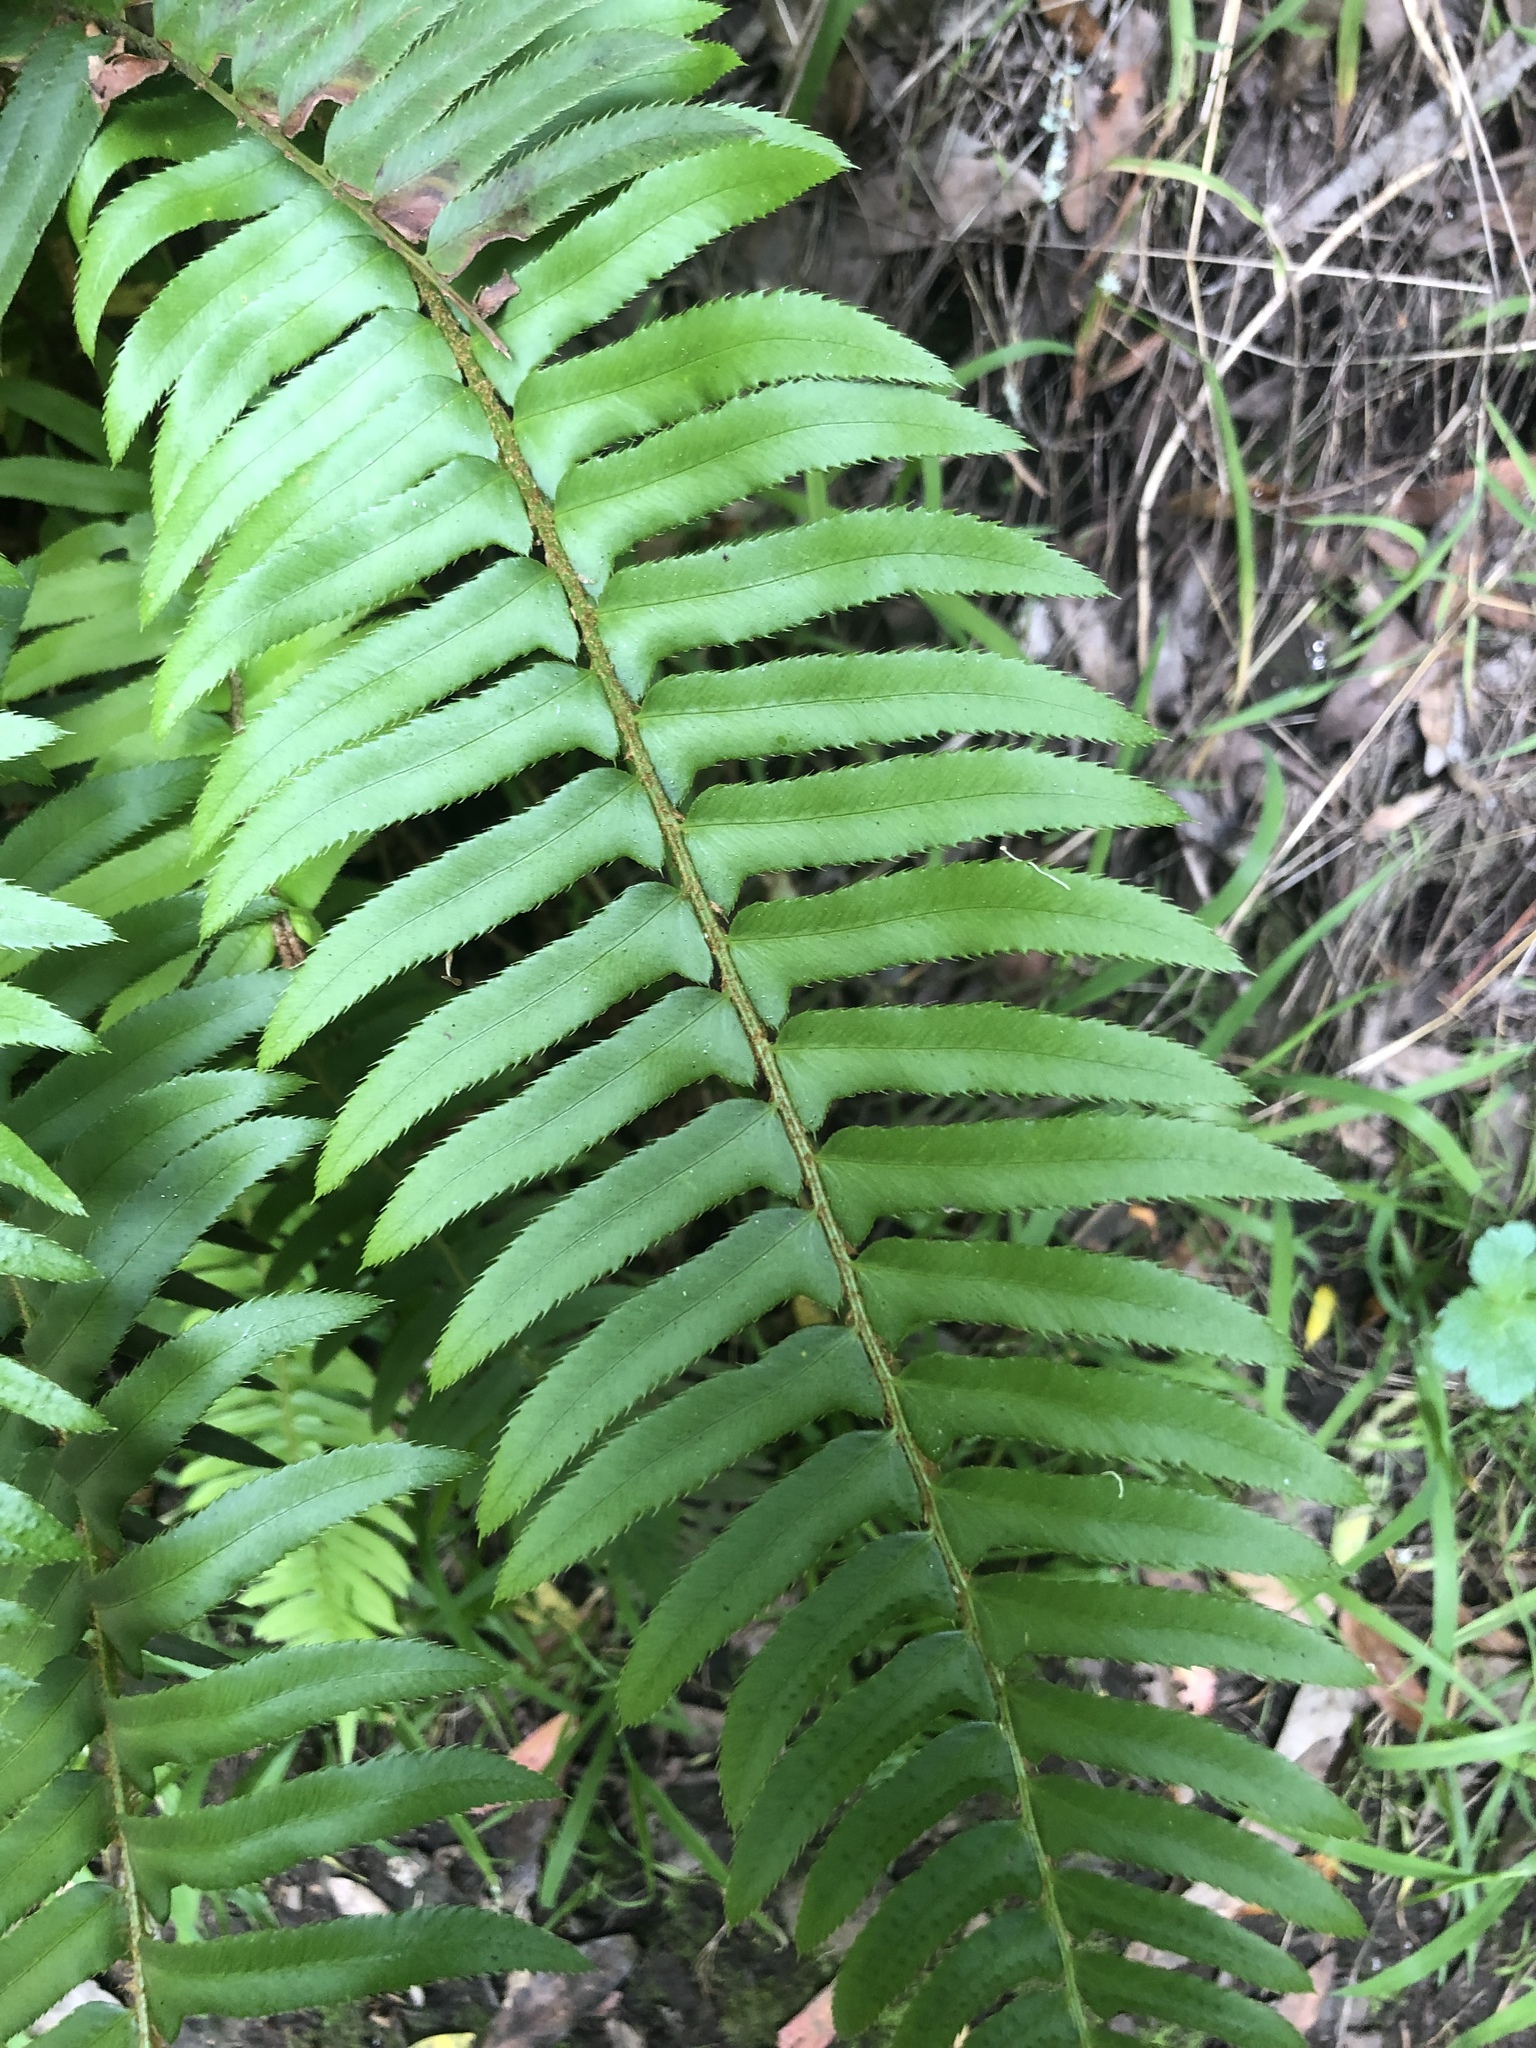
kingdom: Plantae
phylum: Tracheophyta
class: Polypodiopsida
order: Polypodiales
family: Dryopteridaceae
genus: Polystichum
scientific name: Polystichum munitum
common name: Western sword-fern
